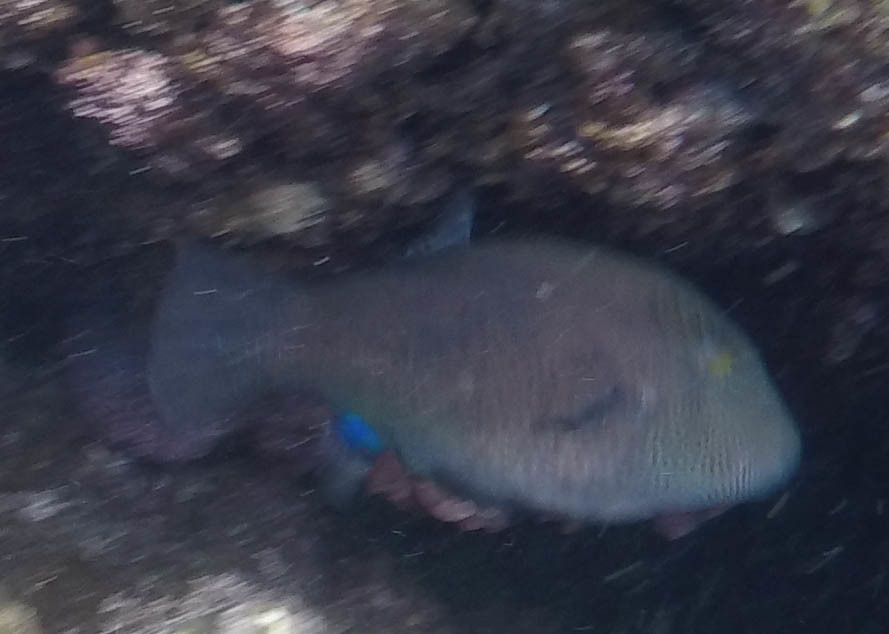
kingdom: Animalia
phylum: Chordata
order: Tetraodontiformes
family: Tetraodontidae
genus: Canthigaster
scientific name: Canthigaster amboinensis
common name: Ambon pufferfish
